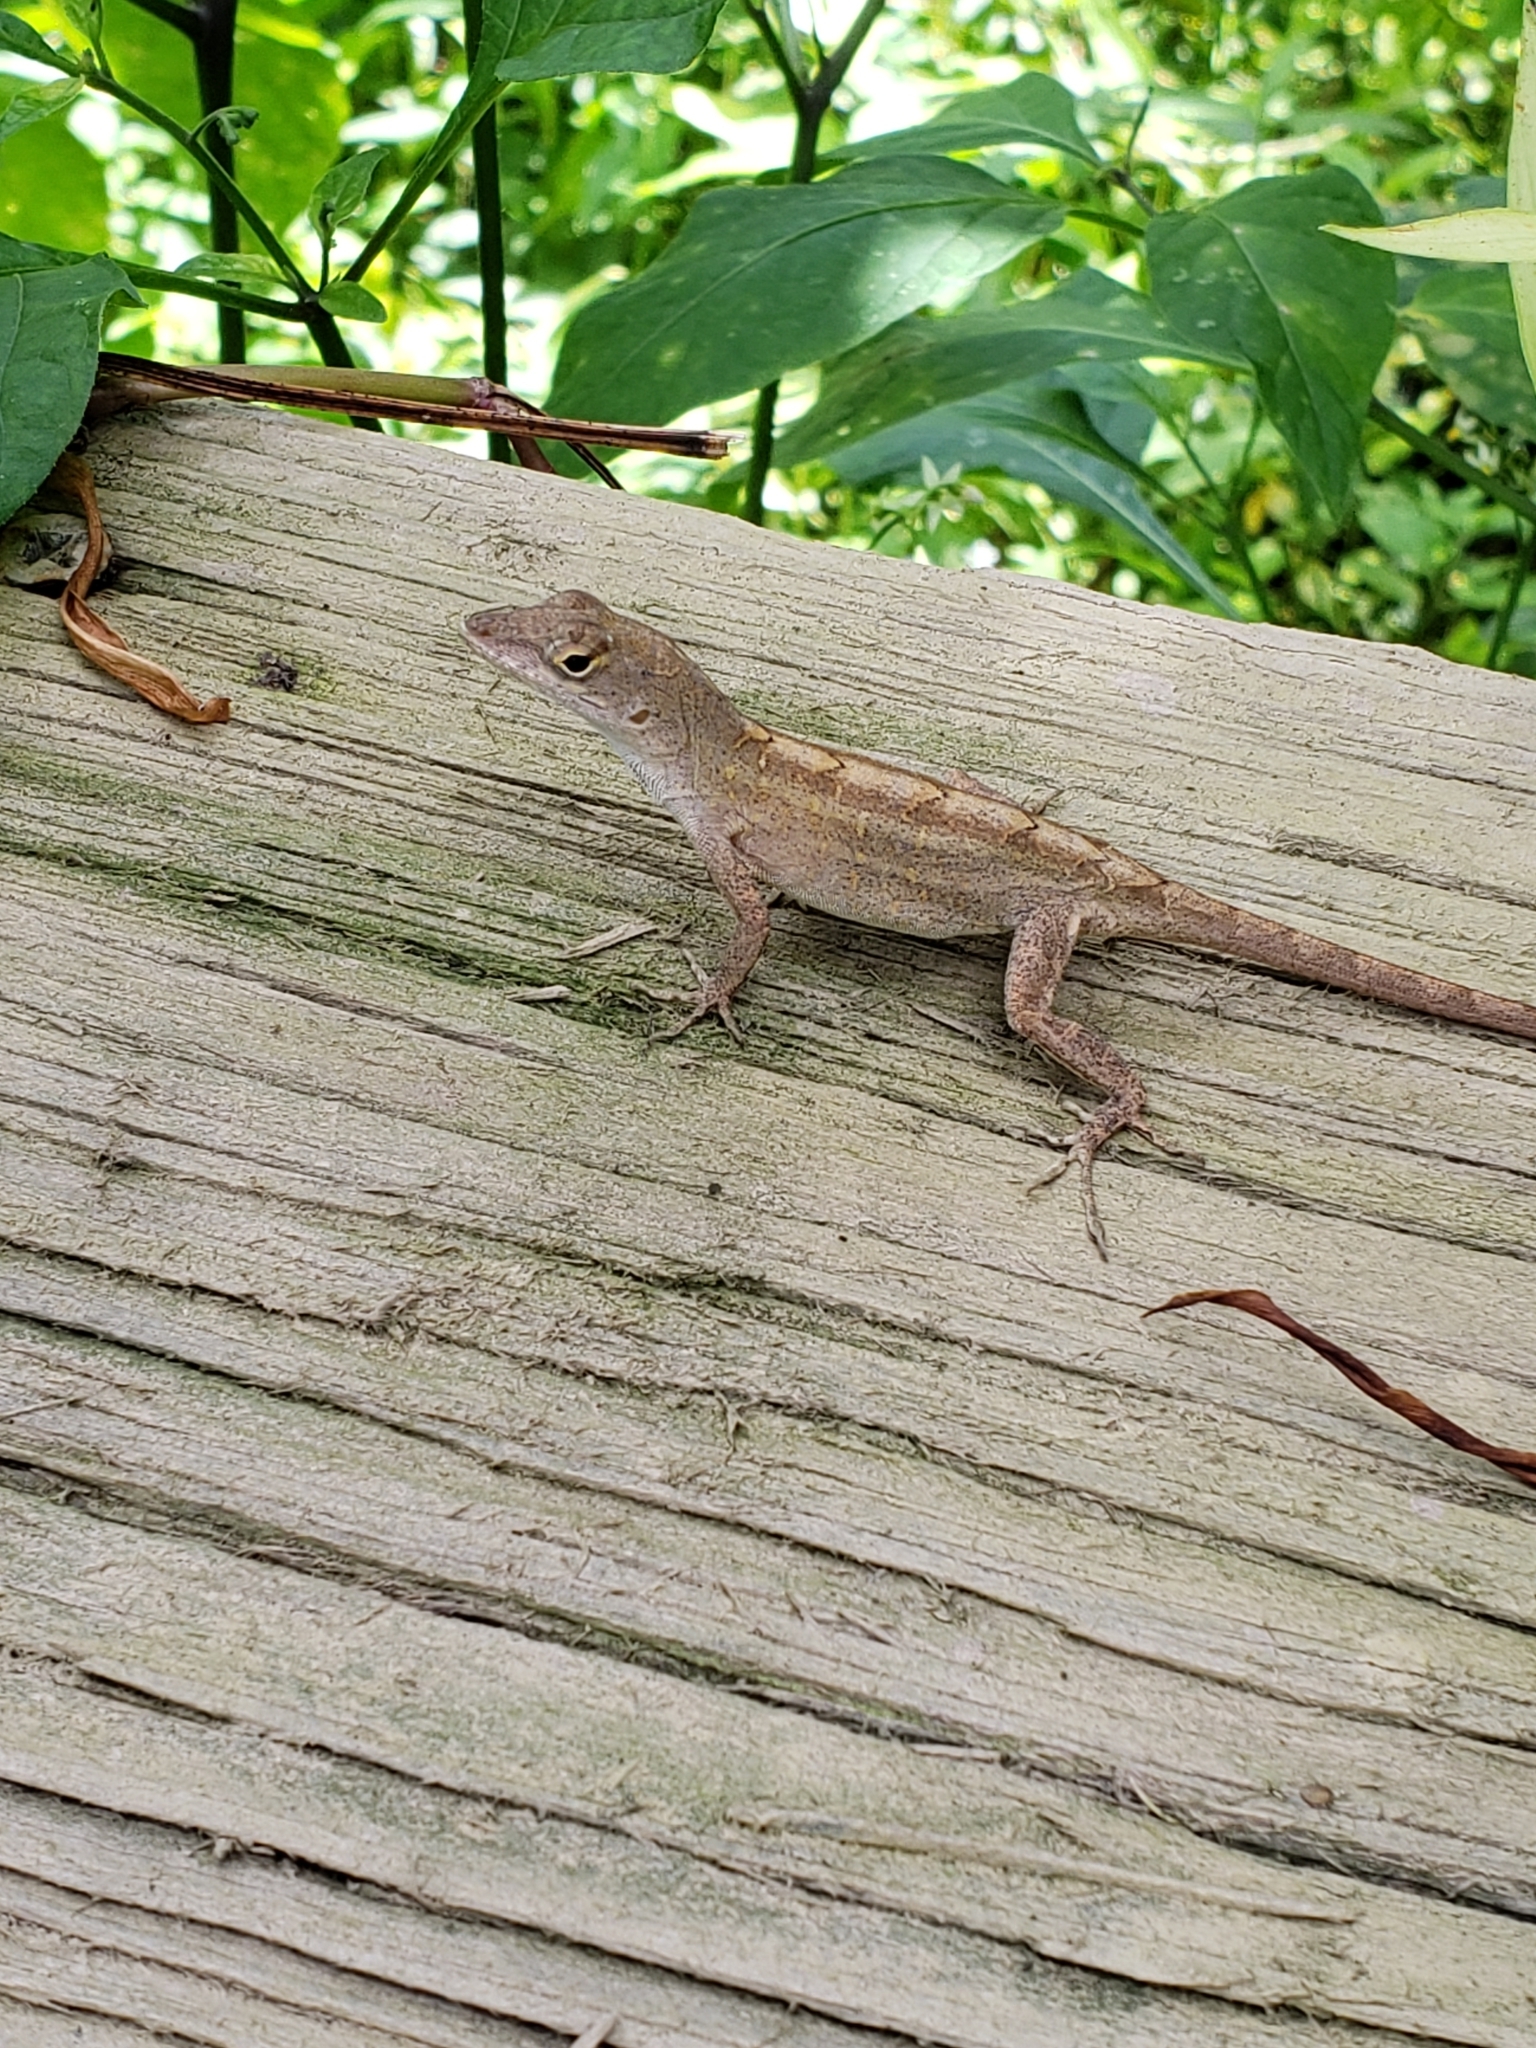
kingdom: Animalia
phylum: Chordata
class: Squamata
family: Dactyloidae
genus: Anolis
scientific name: Anolis sagrei
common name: Brown anole
